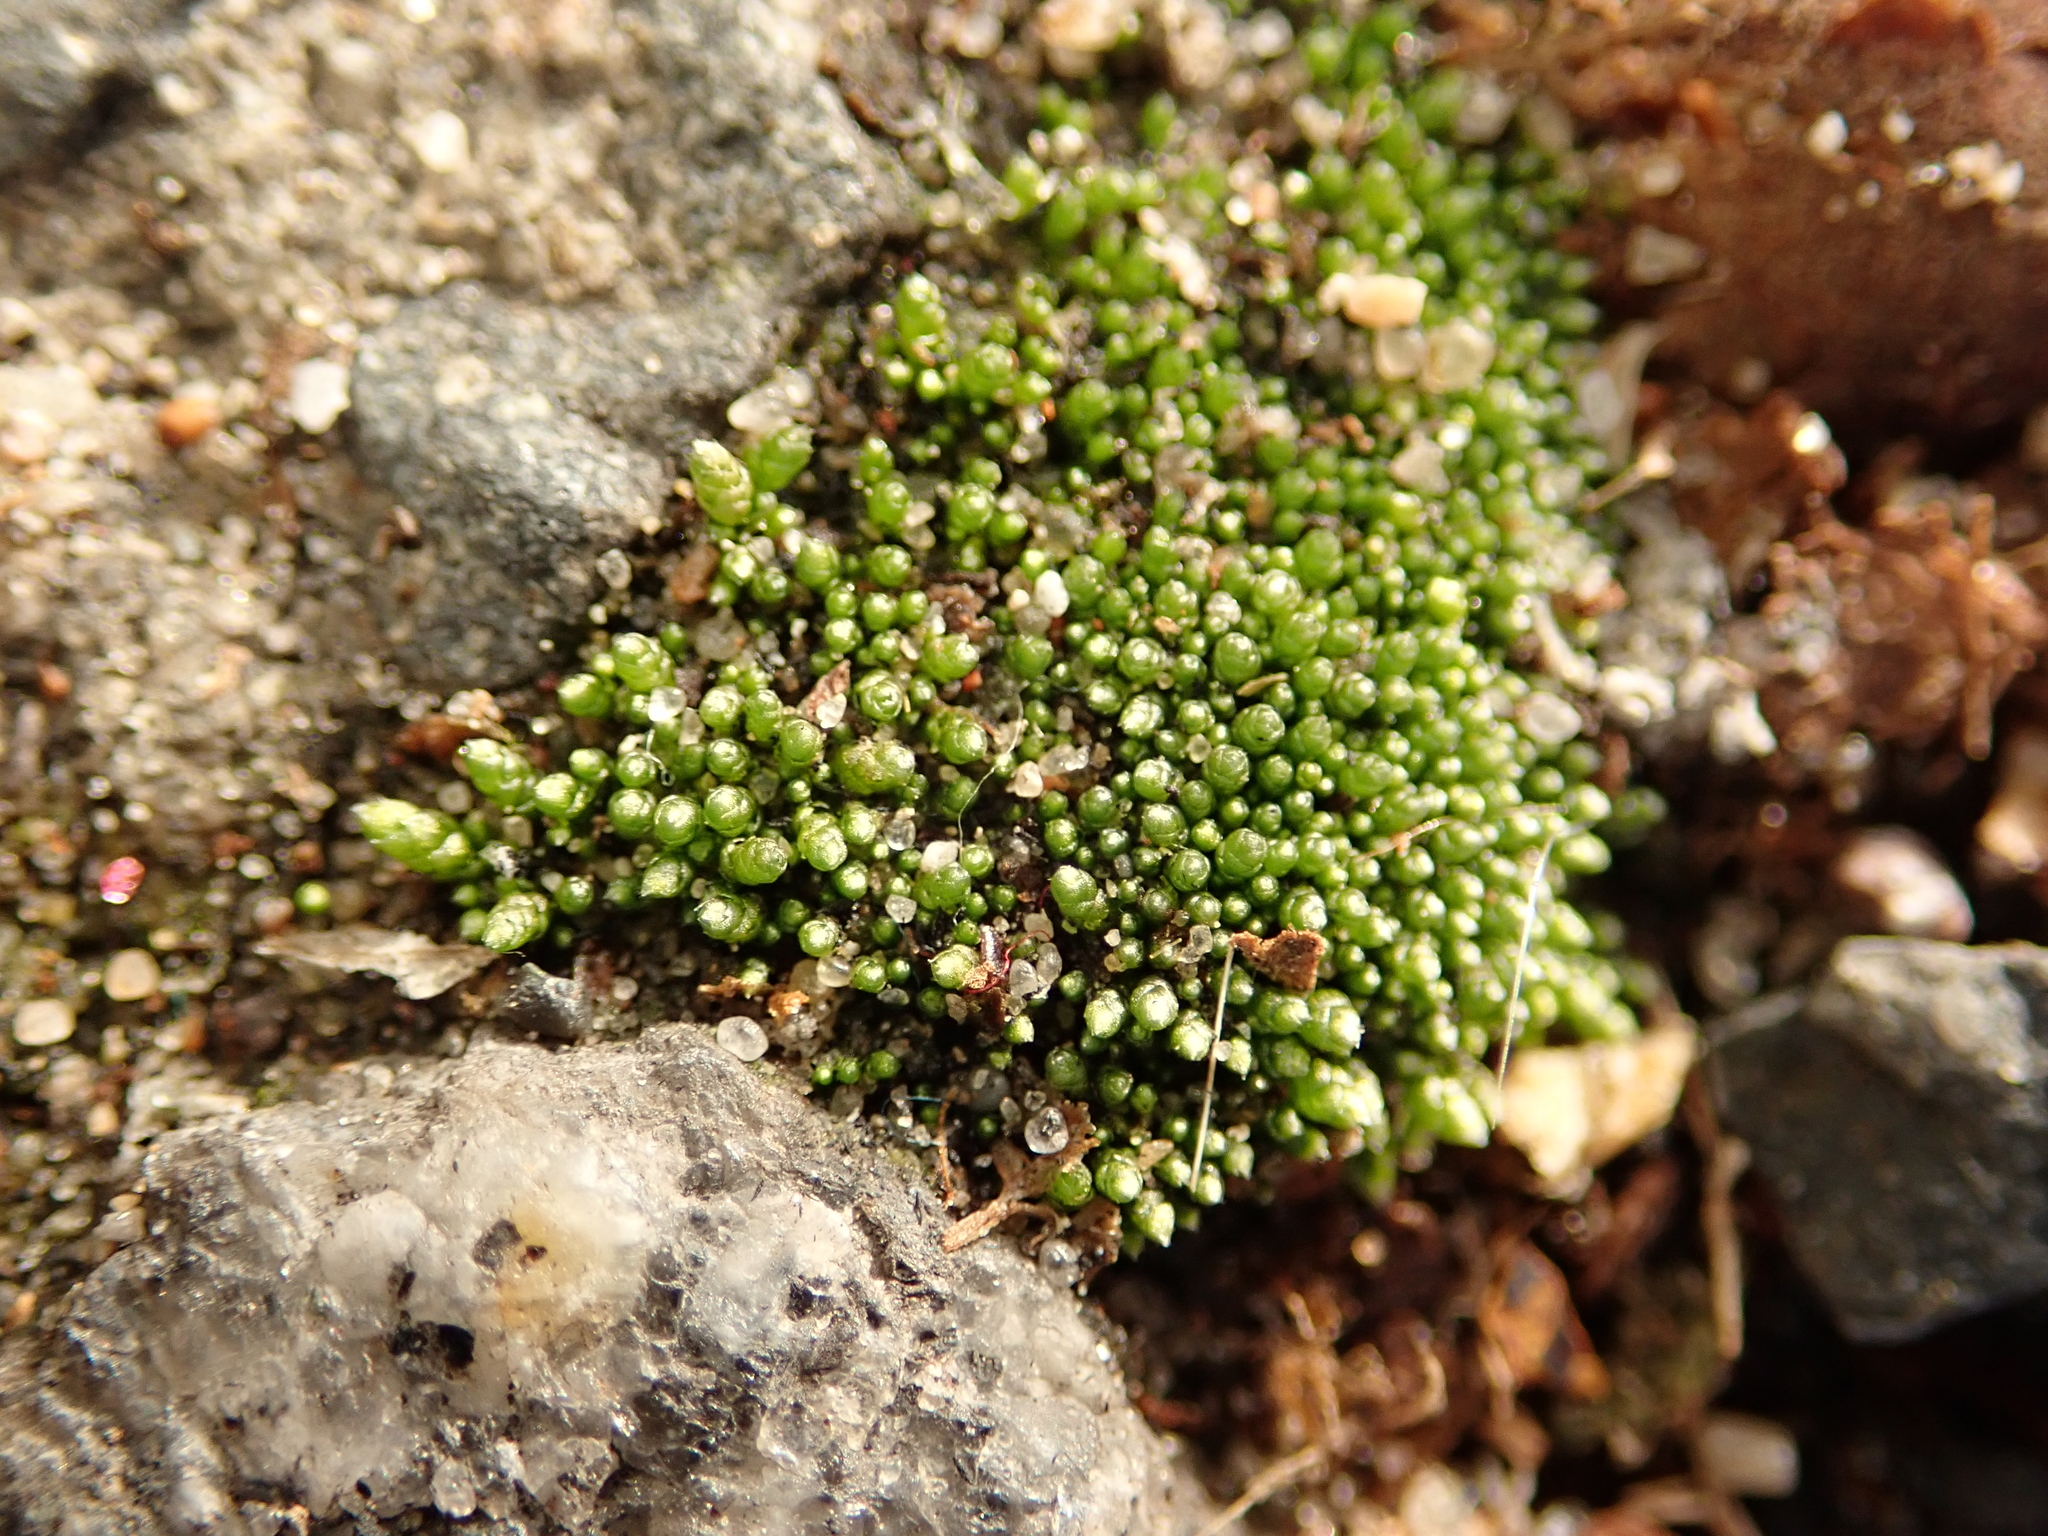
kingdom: Plantae
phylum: Bryophyta
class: Bryopsida
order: Bryales
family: Bryaceae
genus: Bryum
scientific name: Bryum argenteum
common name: Silver-moss
